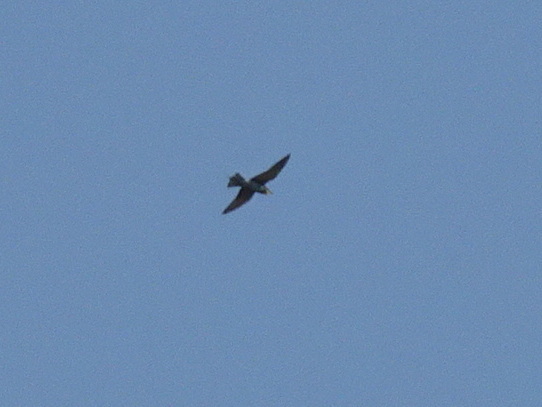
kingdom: Animalia
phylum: Chordata
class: Aves
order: Coraciiformes
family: Meropidae
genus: Merops
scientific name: Merops apiaster
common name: European bee-eater
